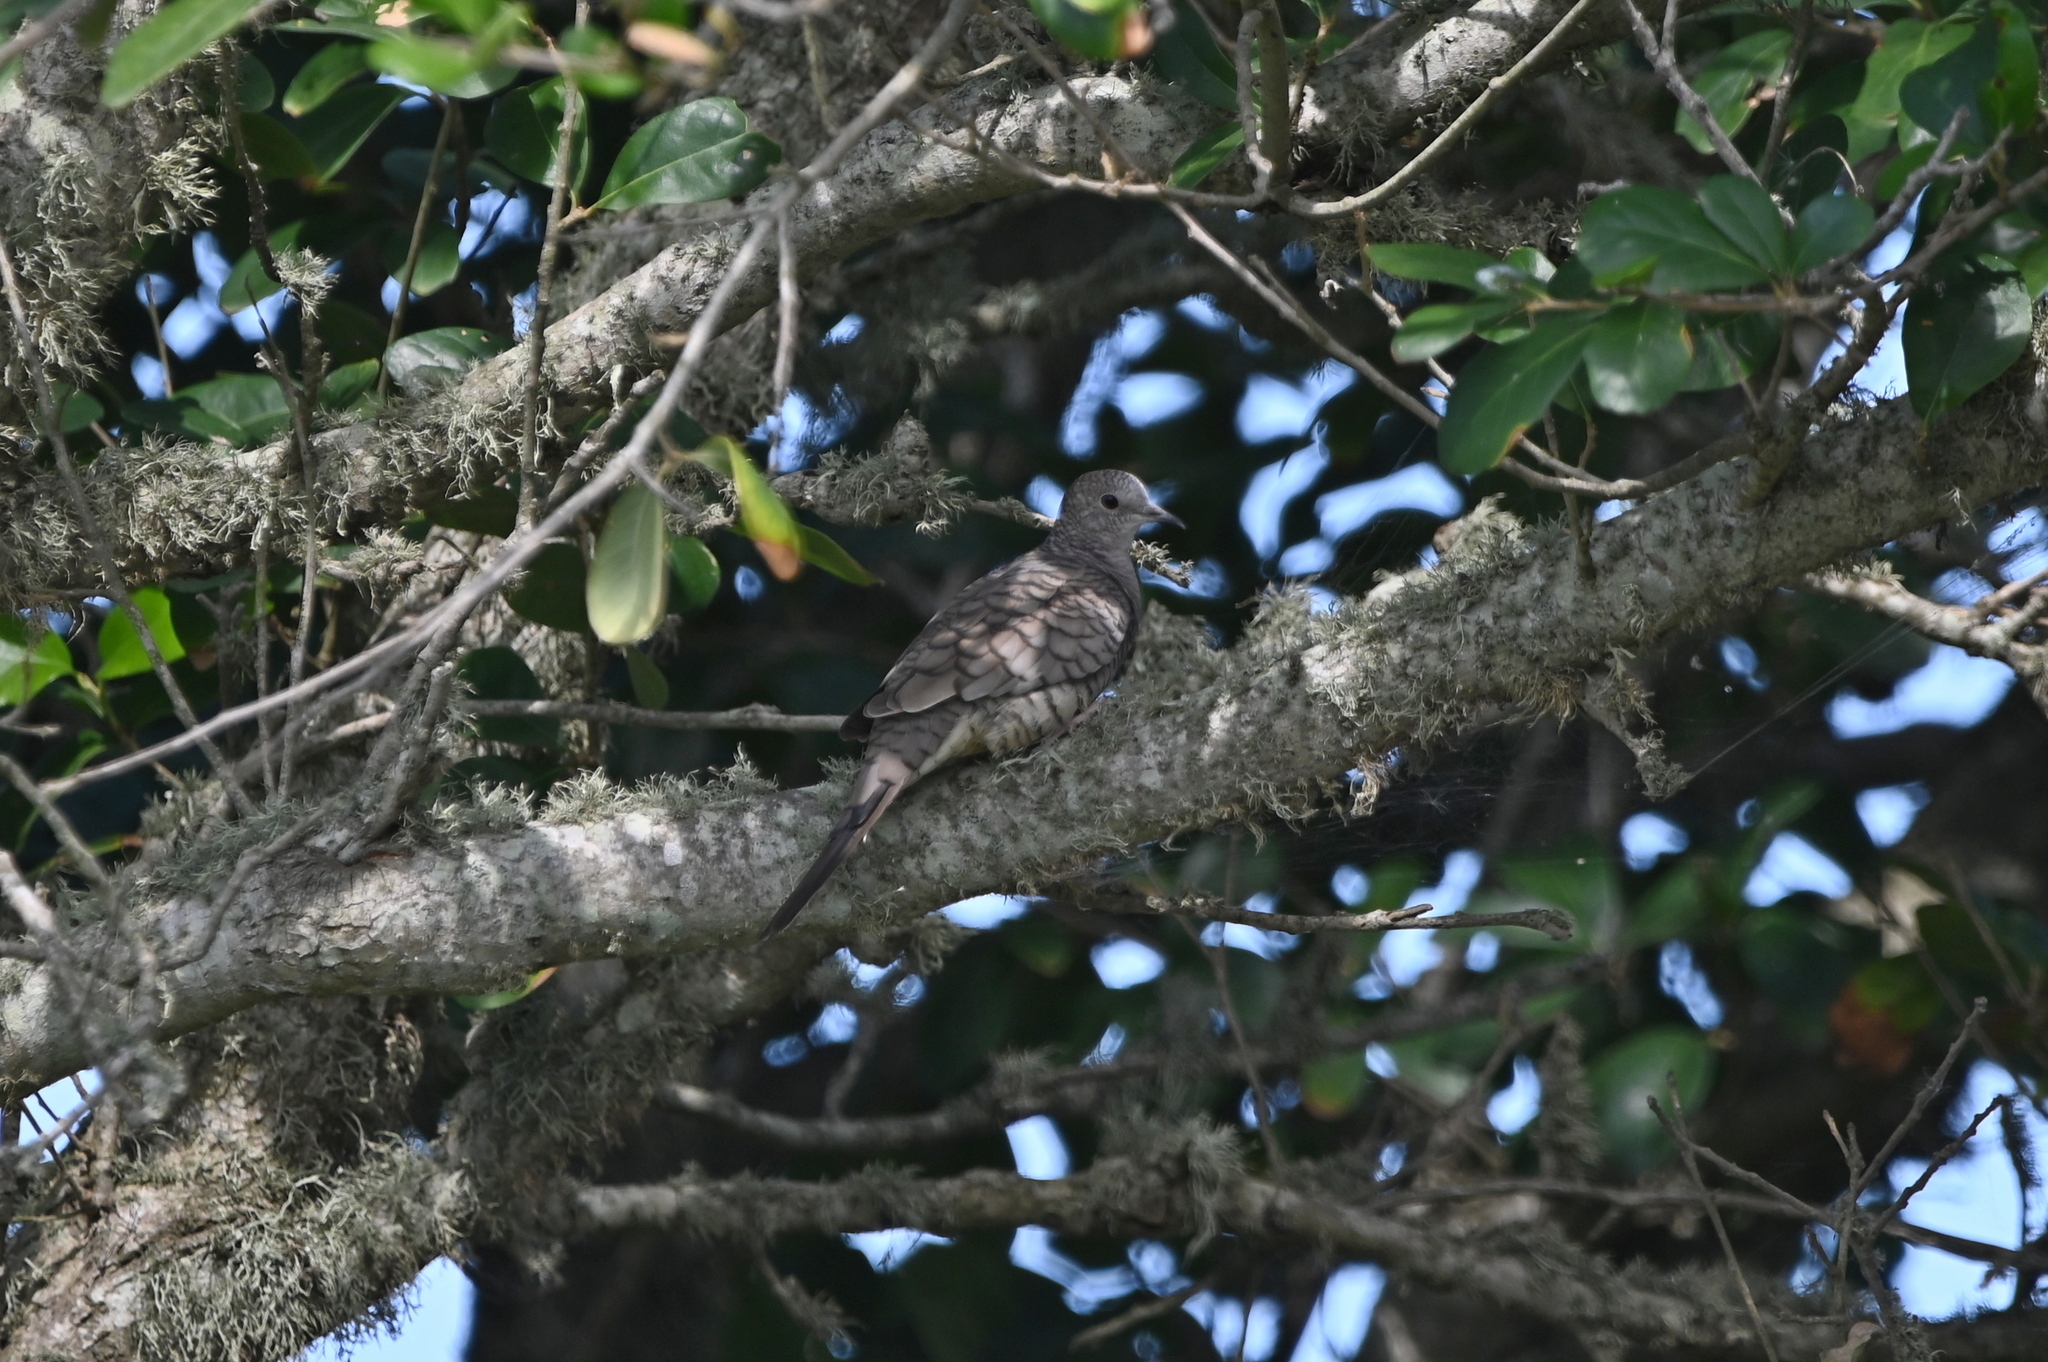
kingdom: Animalia
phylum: Chordata
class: Aves
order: Columbiformes
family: Columbidae
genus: Columbina
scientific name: Columbina inca
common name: Inca dove
